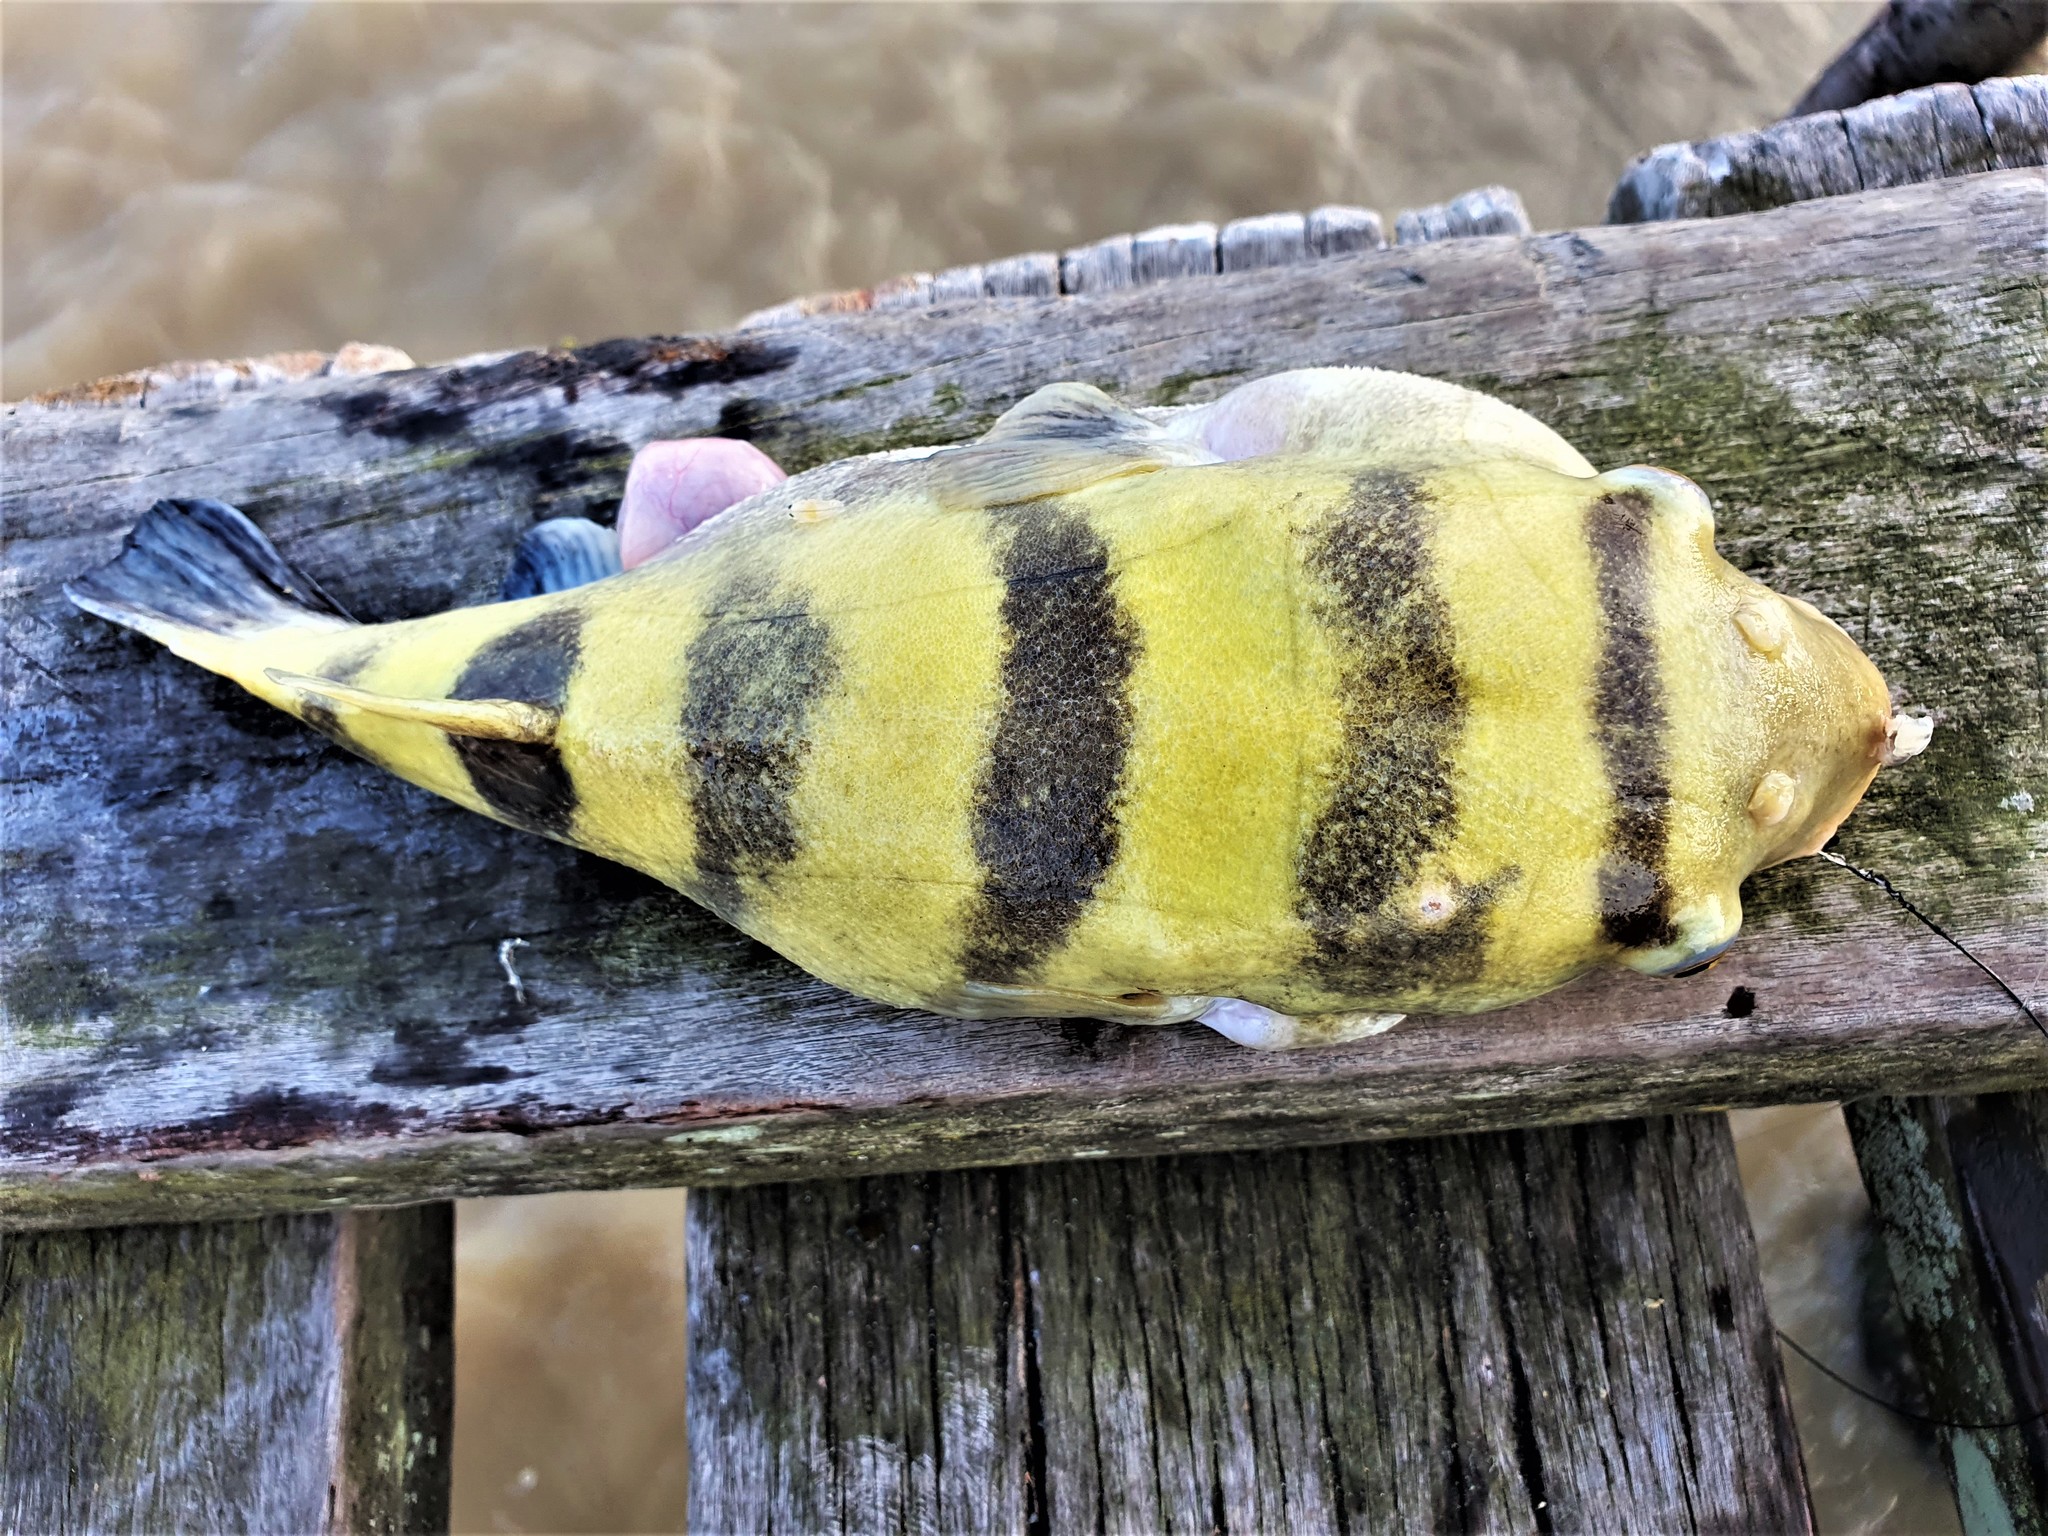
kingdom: Animalia
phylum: Chordata
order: Tetraodontiformes
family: Tetraodontidae
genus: Sphoeroides
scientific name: Sphoeroides
